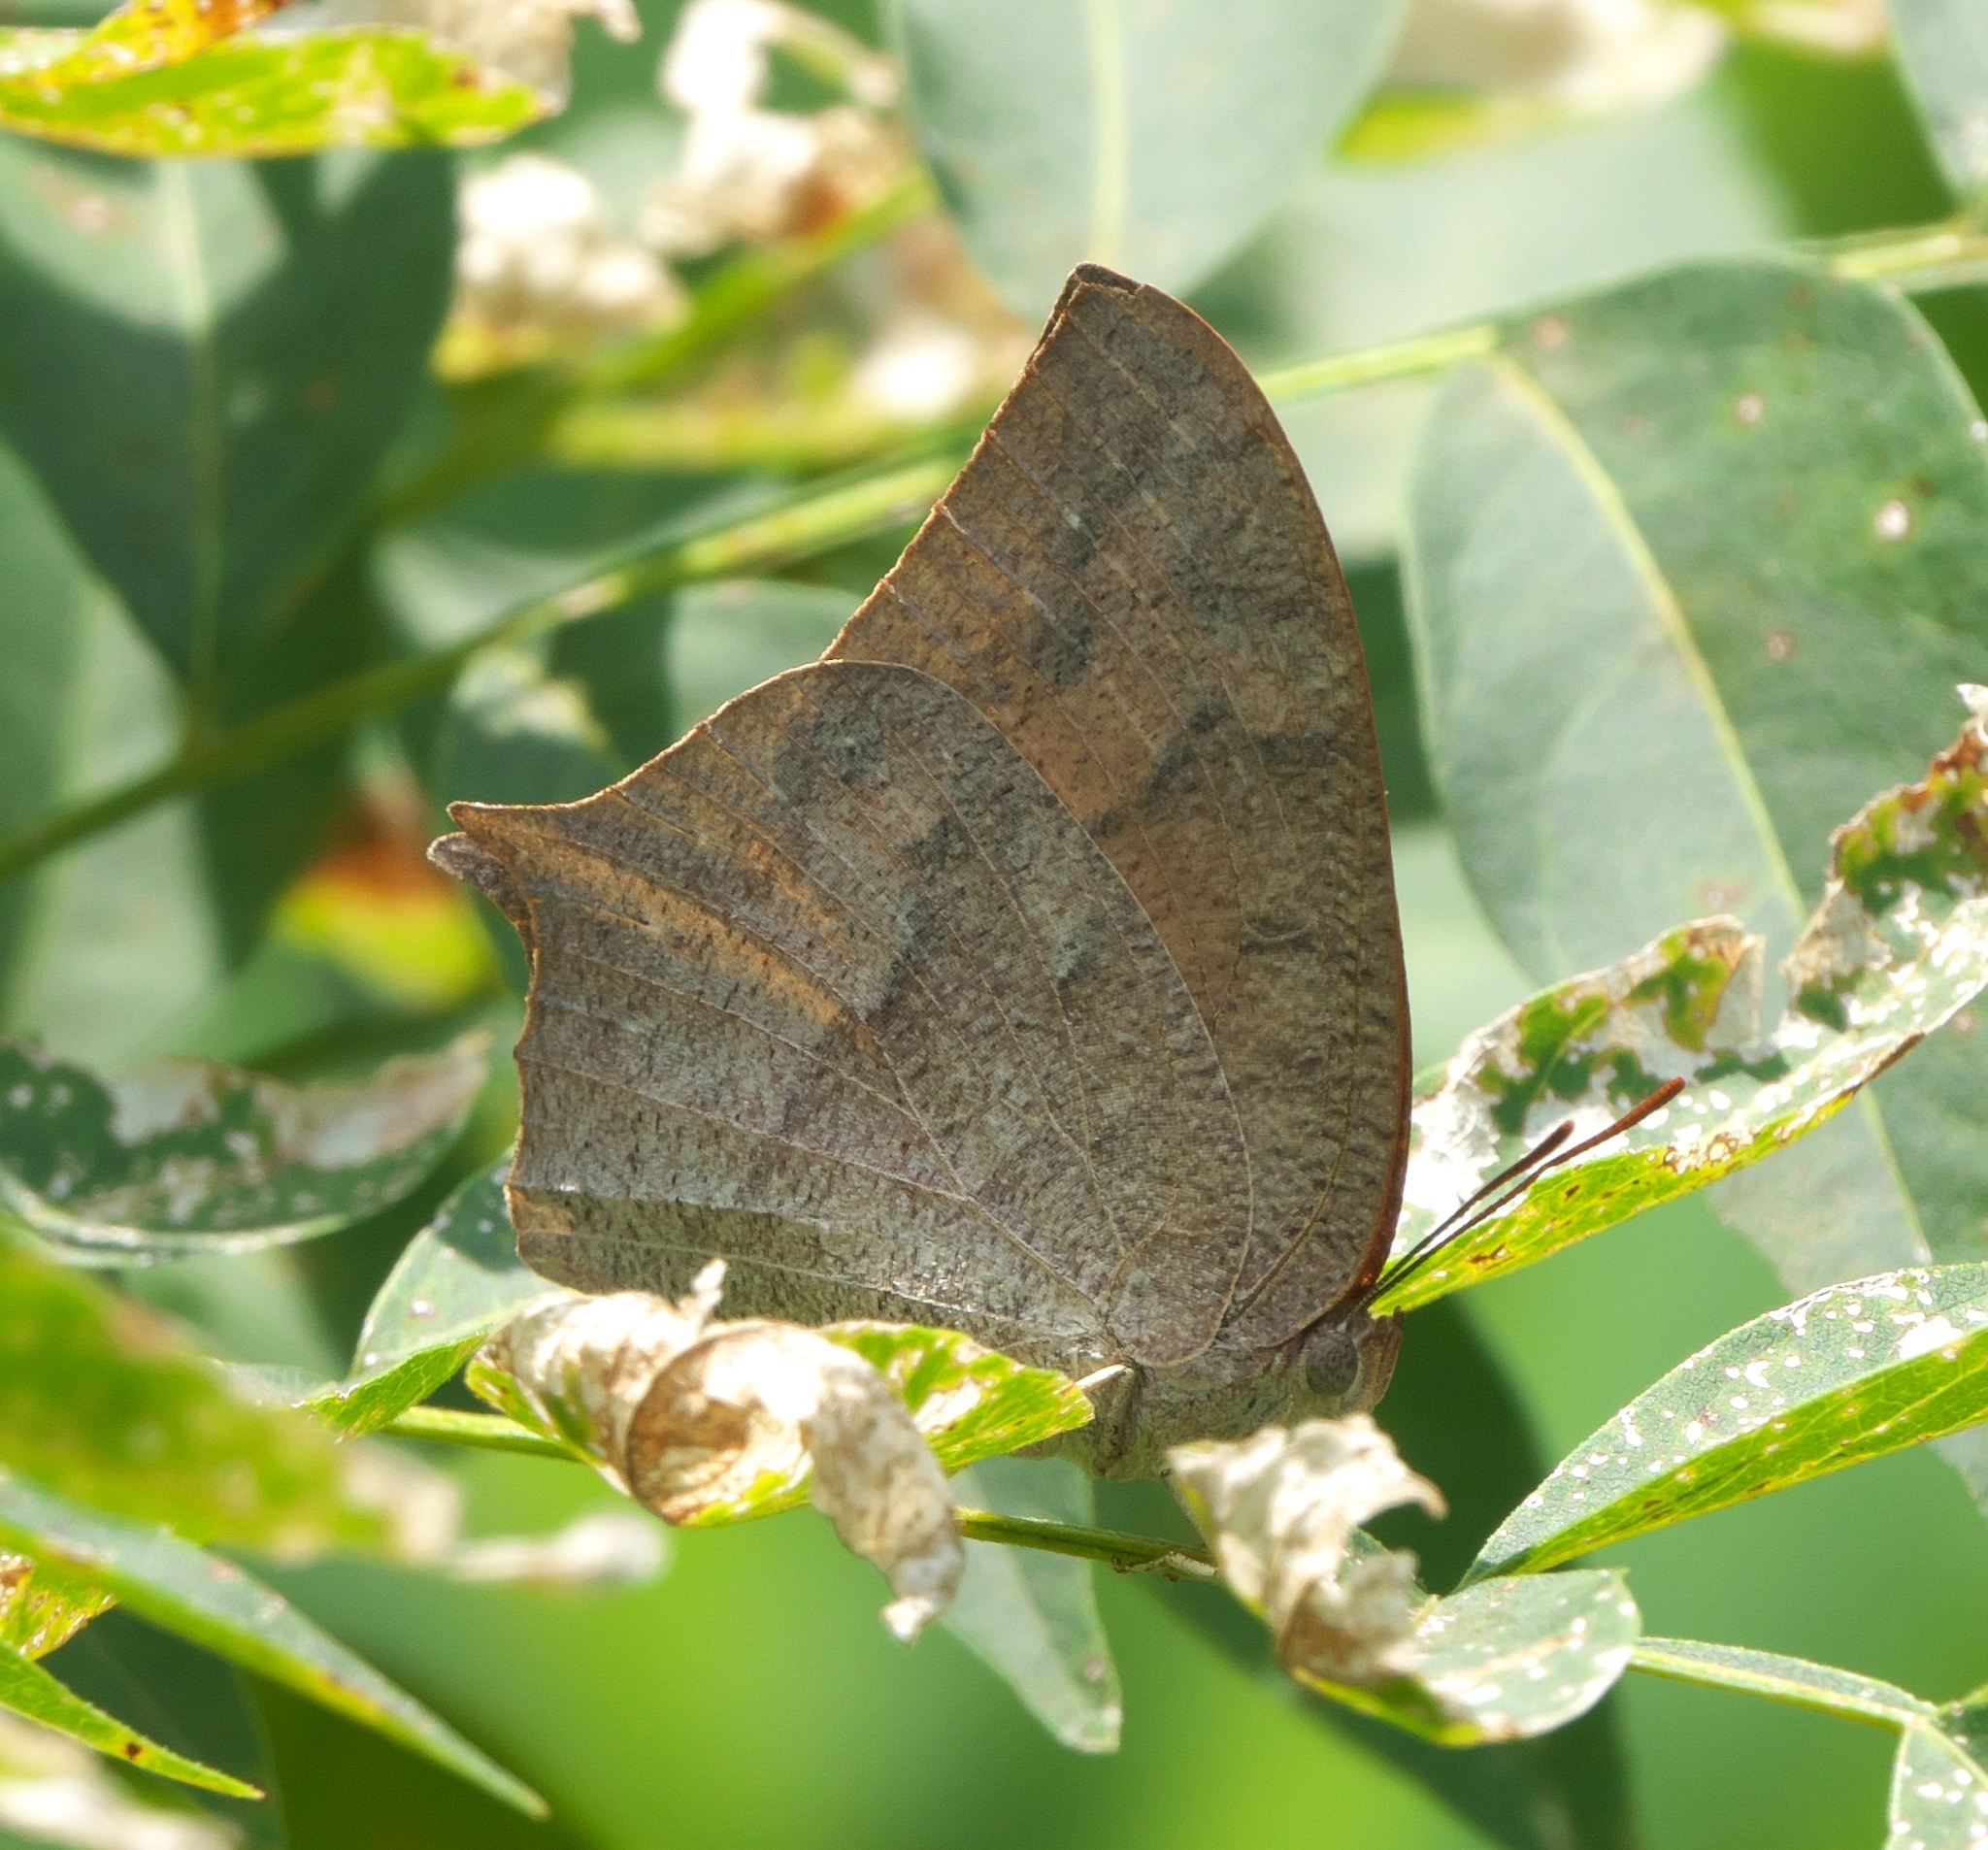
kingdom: Animalia
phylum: Arthropoda
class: Insecta
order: Lepidoptera
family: Nymphalidae
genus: Anaea
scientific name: Anaea andria
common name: Goatweed leafwing
